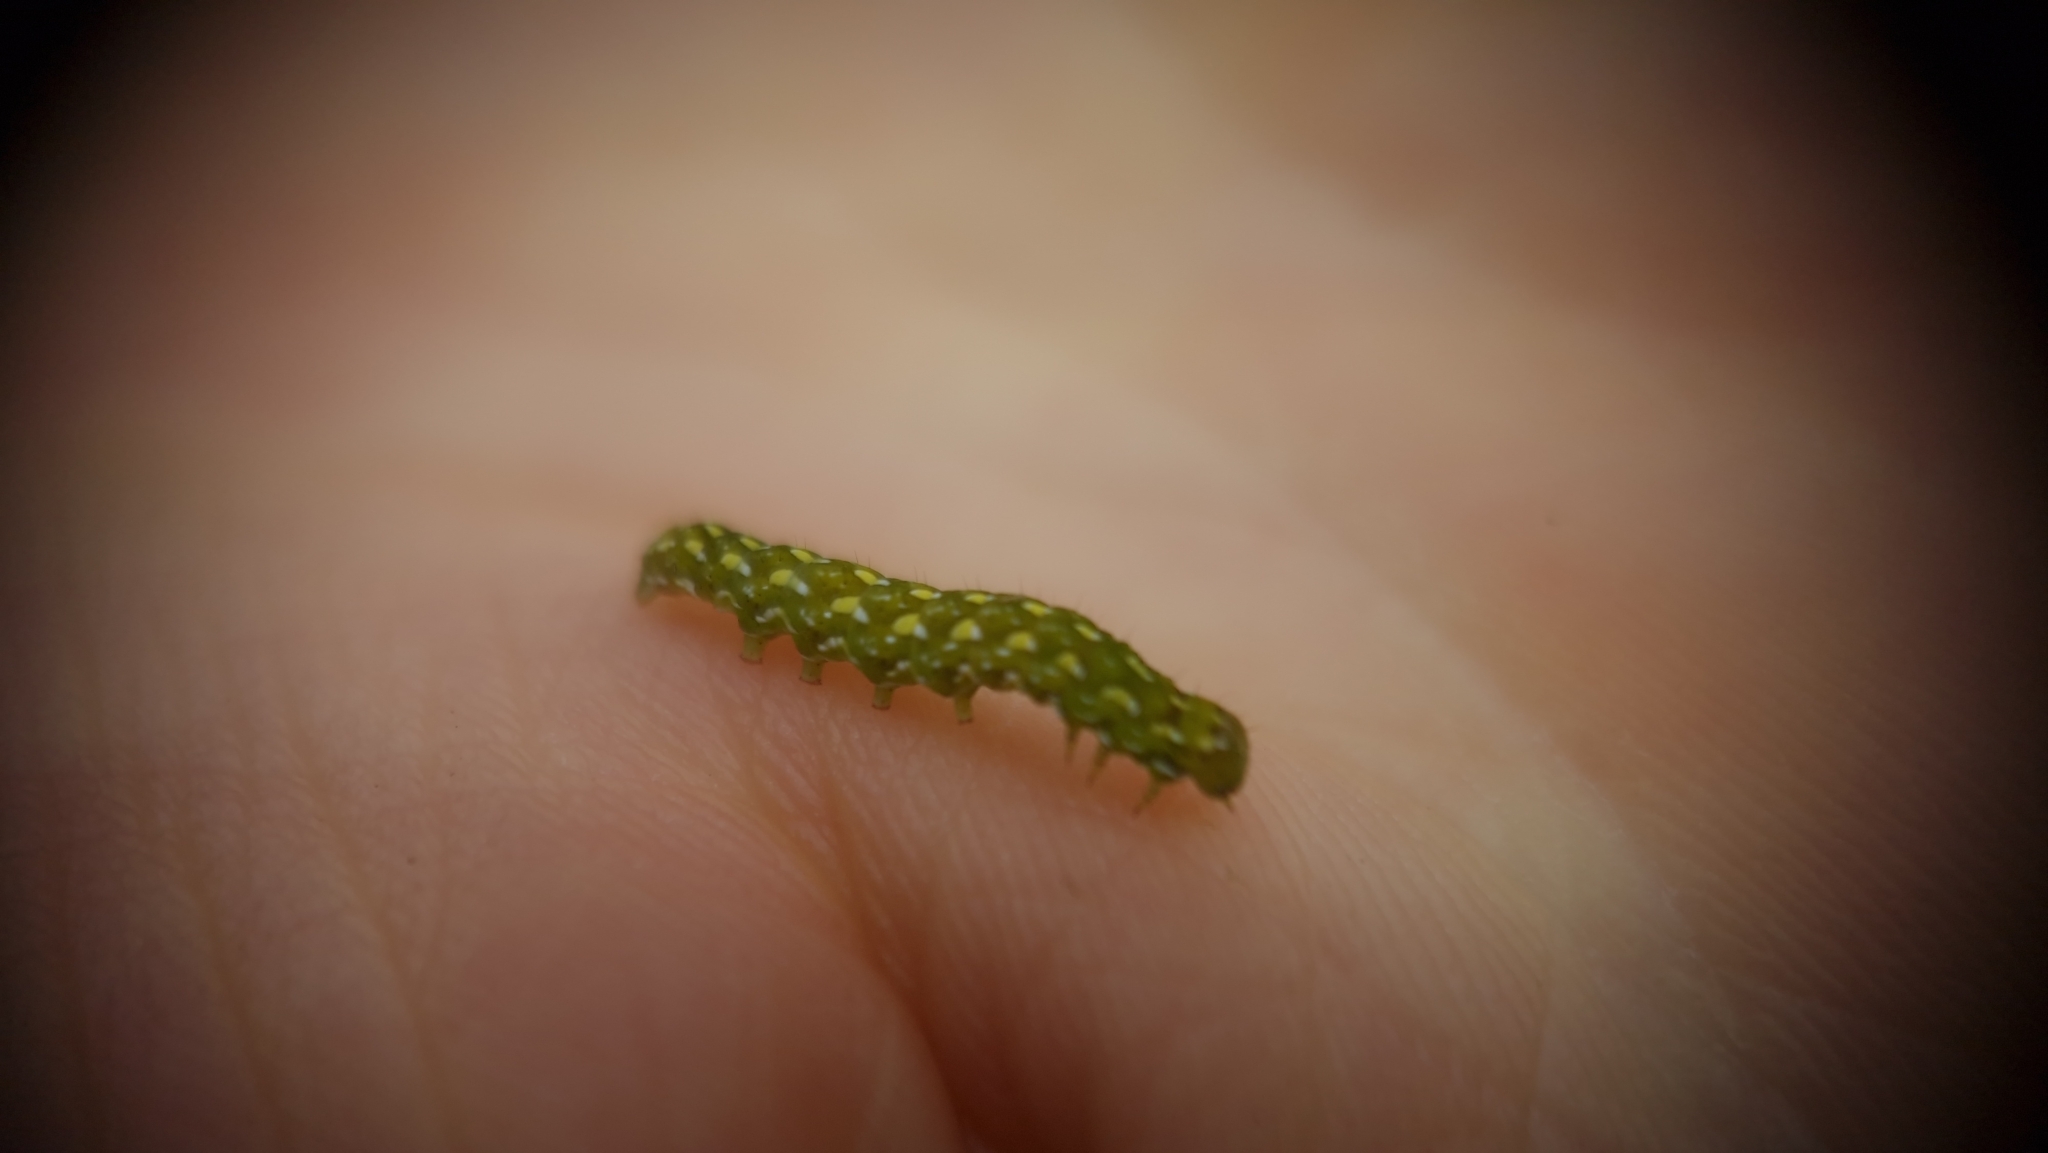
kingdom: Animalia
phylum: Arthropoda
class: Insecta
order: Lepidoptera
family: Noctuidae
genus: Anarta
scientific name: Anarta myrtilli
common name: Beautiful yellow underwing
